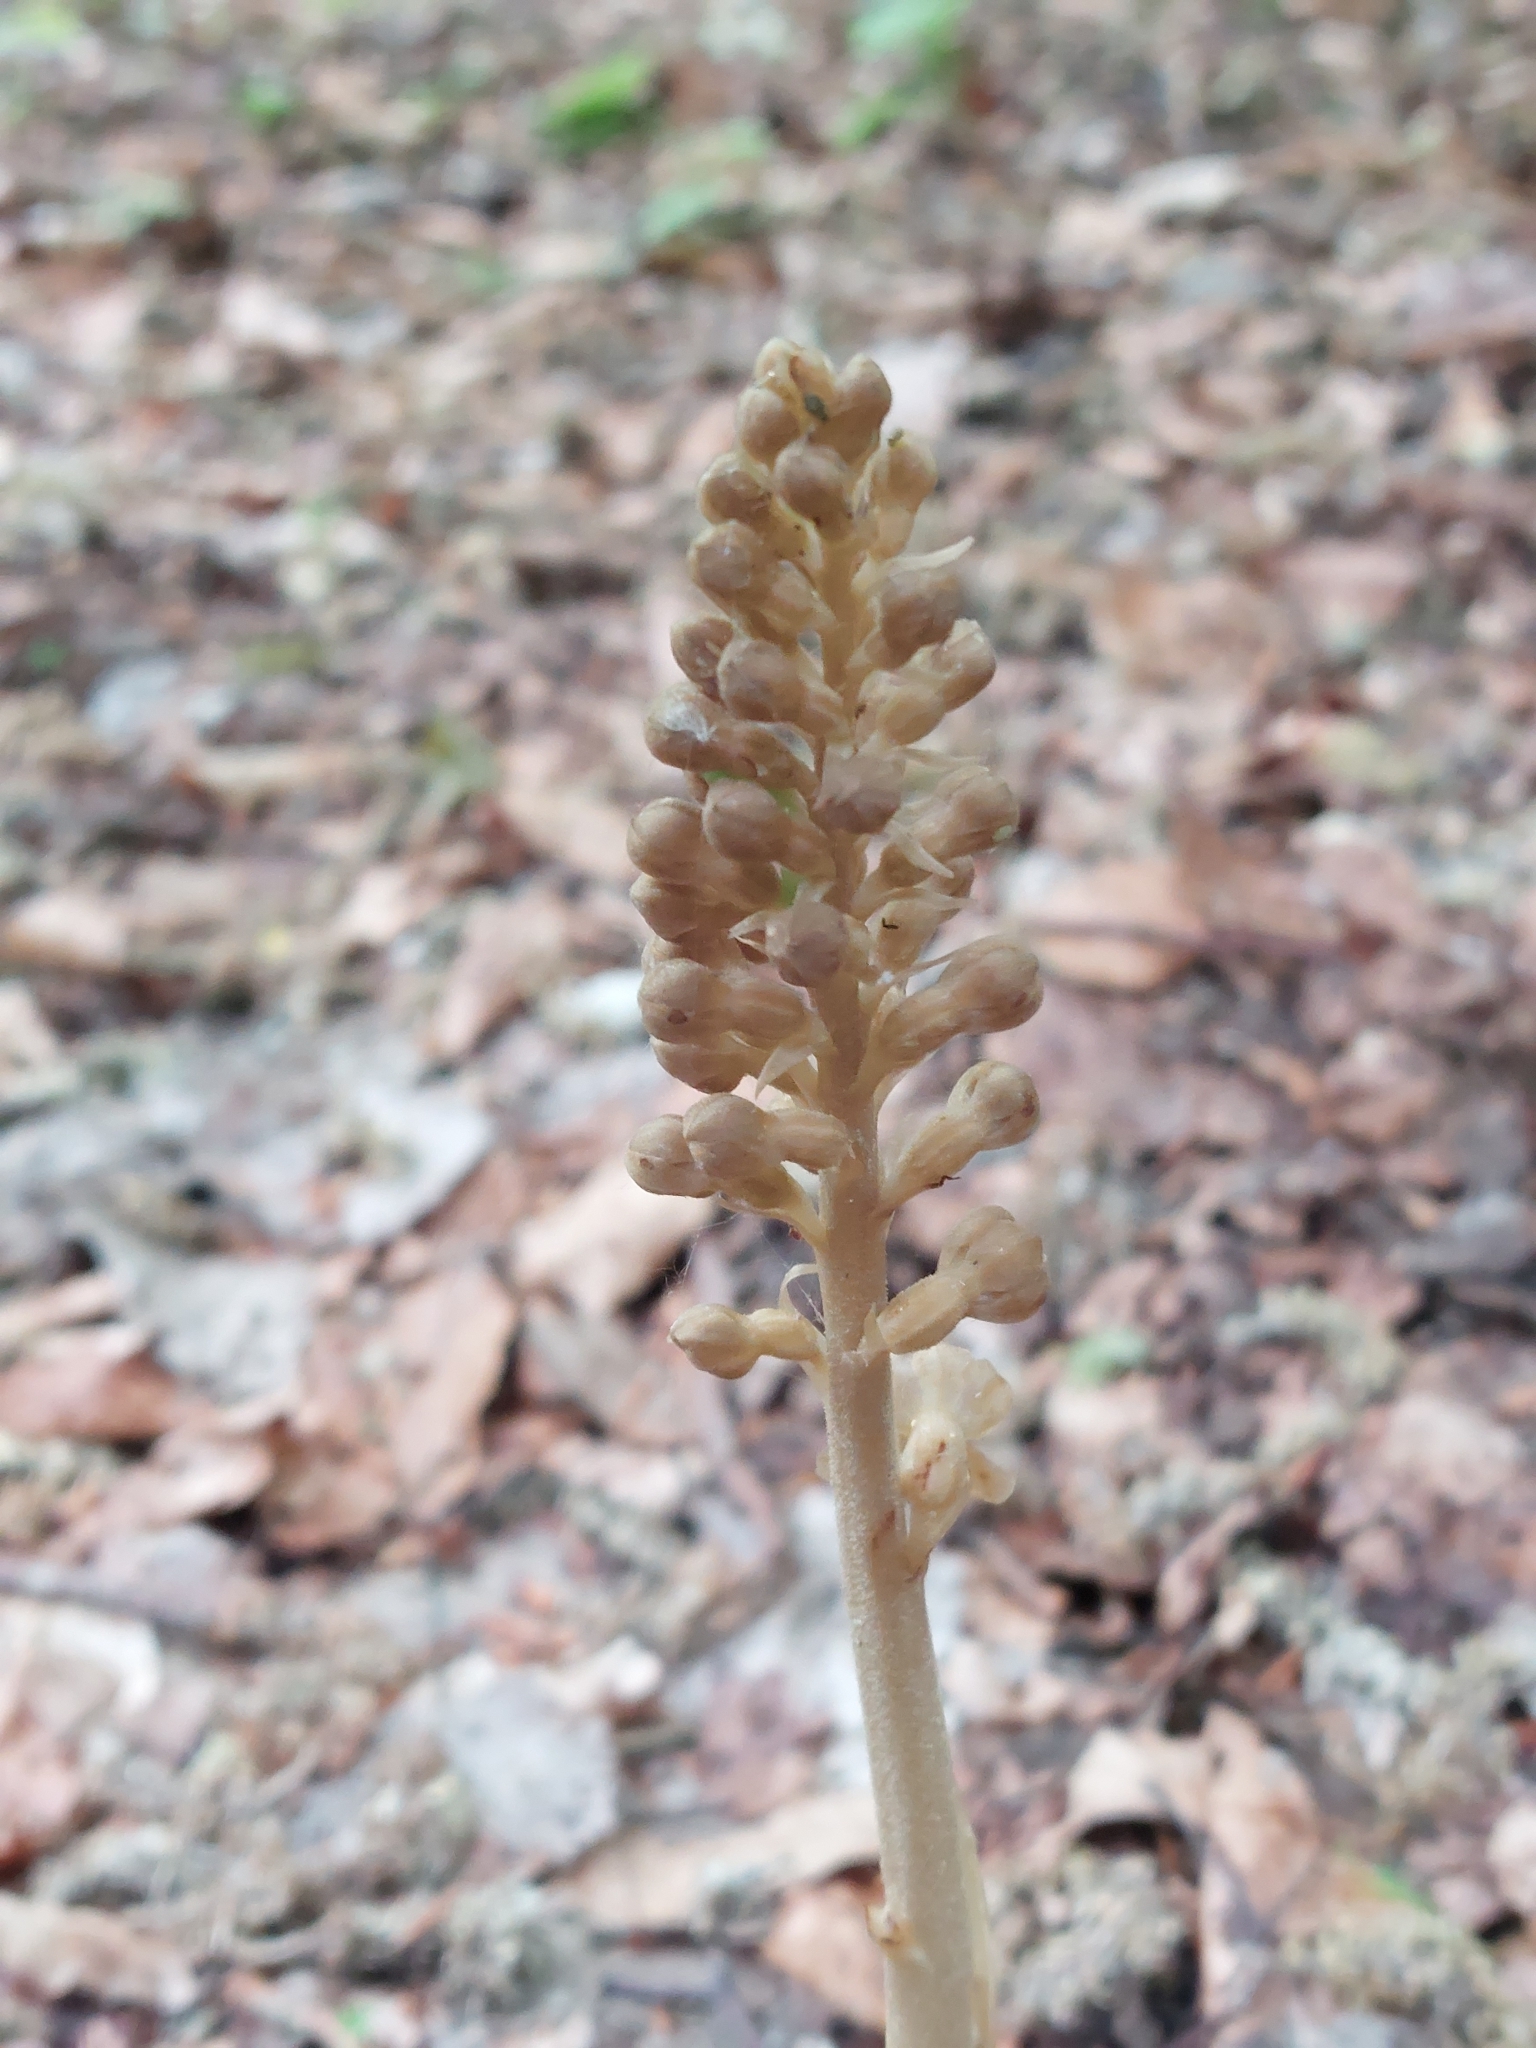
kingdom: Plantae
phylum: Tracheophyta
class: Liliopsida
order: Asparagales
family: Orchidaceae
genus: Neottia
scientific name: Neottia nidus-avis
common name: Bird's-nest orchid
